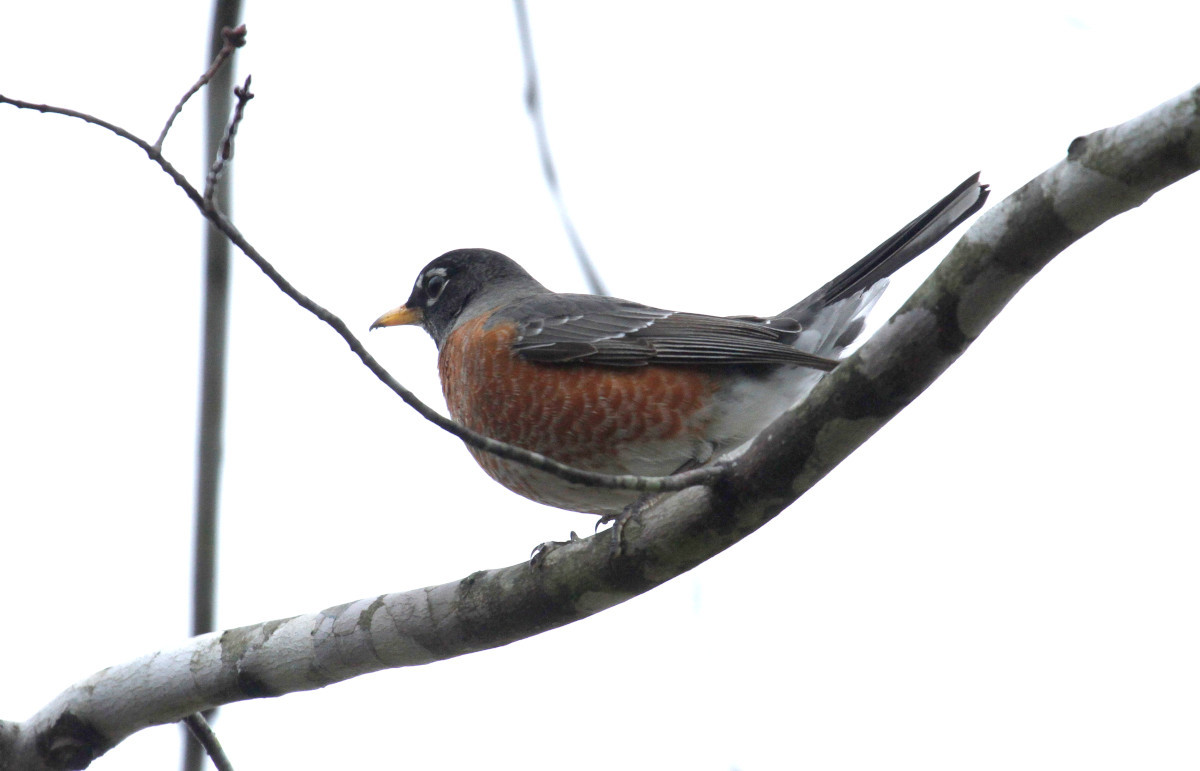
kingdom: Animalia
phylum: Chordata
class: Aves
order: Passeriformes
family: Turdidae
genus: Turdus
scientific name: Turdus migratorius
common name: American robin
